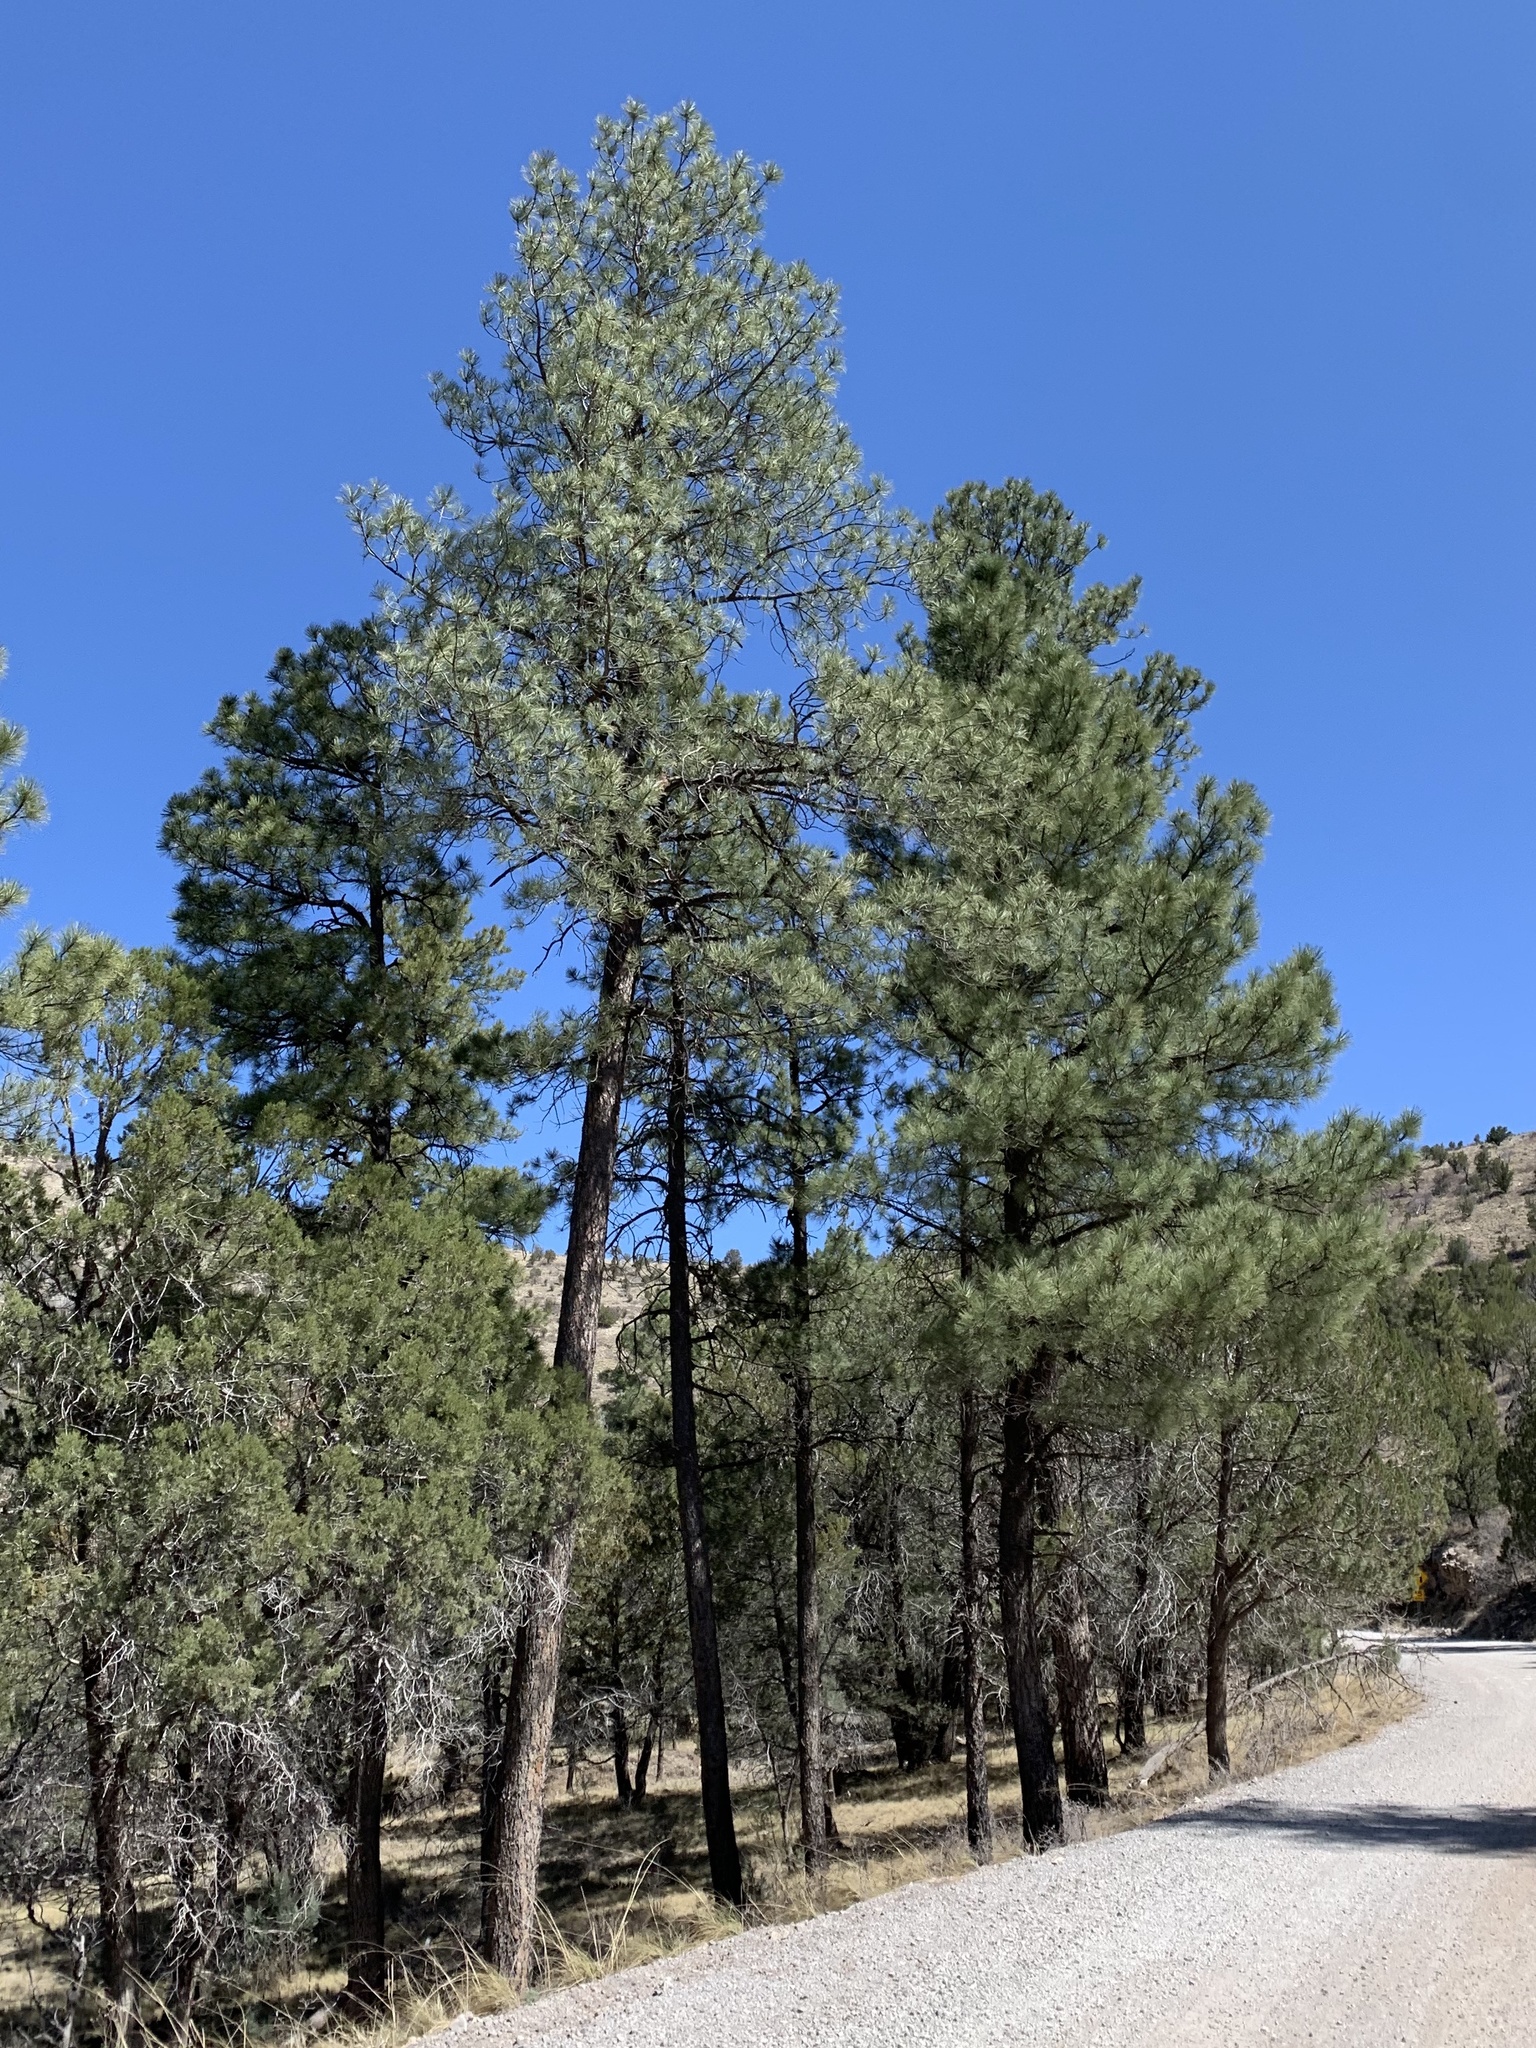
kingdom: Plantae
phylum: Tracheophyta
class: Pinopsida
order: Pinales
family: Pinaceae
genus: Pinus
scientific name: Pinus ponderosa
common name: Western yellow-pine
